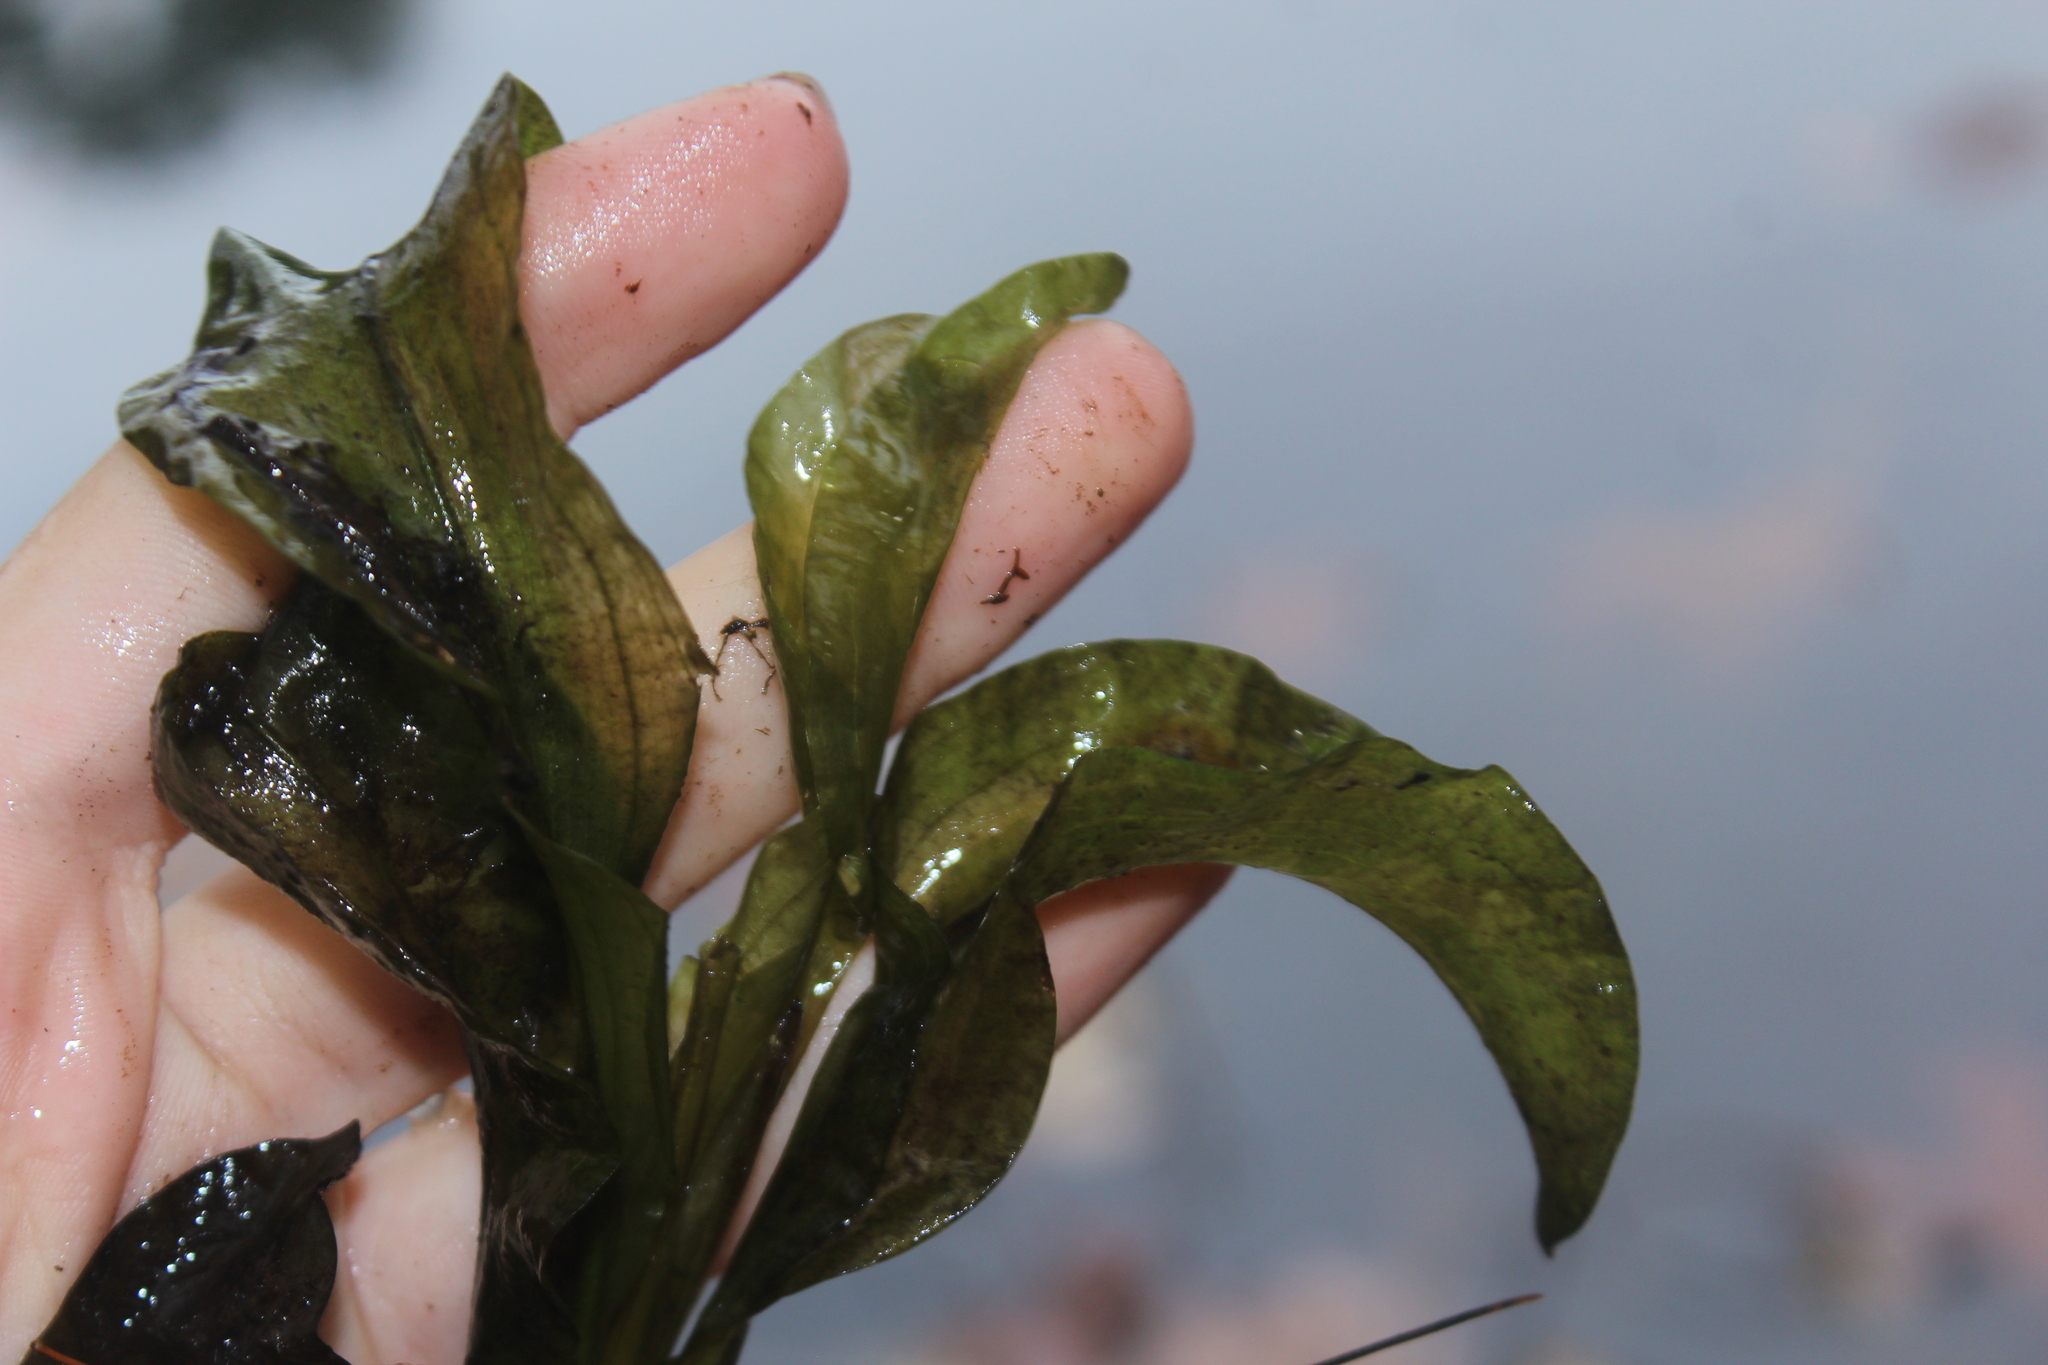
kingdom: Plantae
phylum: Tracheophyta
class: Liliopsida
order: Alismatales
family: Potamogetonaceae
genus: Potamogeton
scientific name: Potamogeton amplifolius
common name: Broad-leaved pondweed
